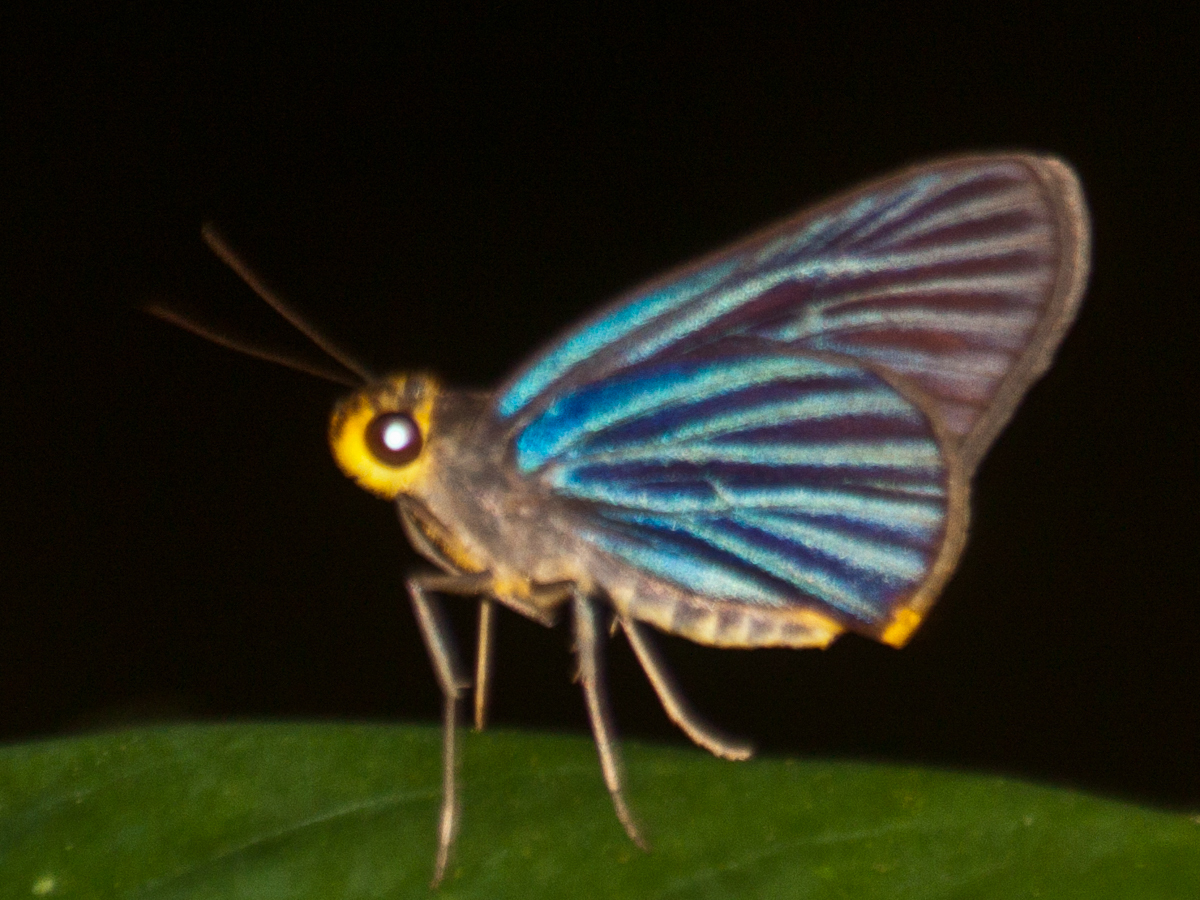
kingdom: Animalia
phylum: Arthropoda
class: Insecta
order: Lepidoptera
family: Hesperiidae
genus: Pirdana
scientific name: Pirdana hyela
